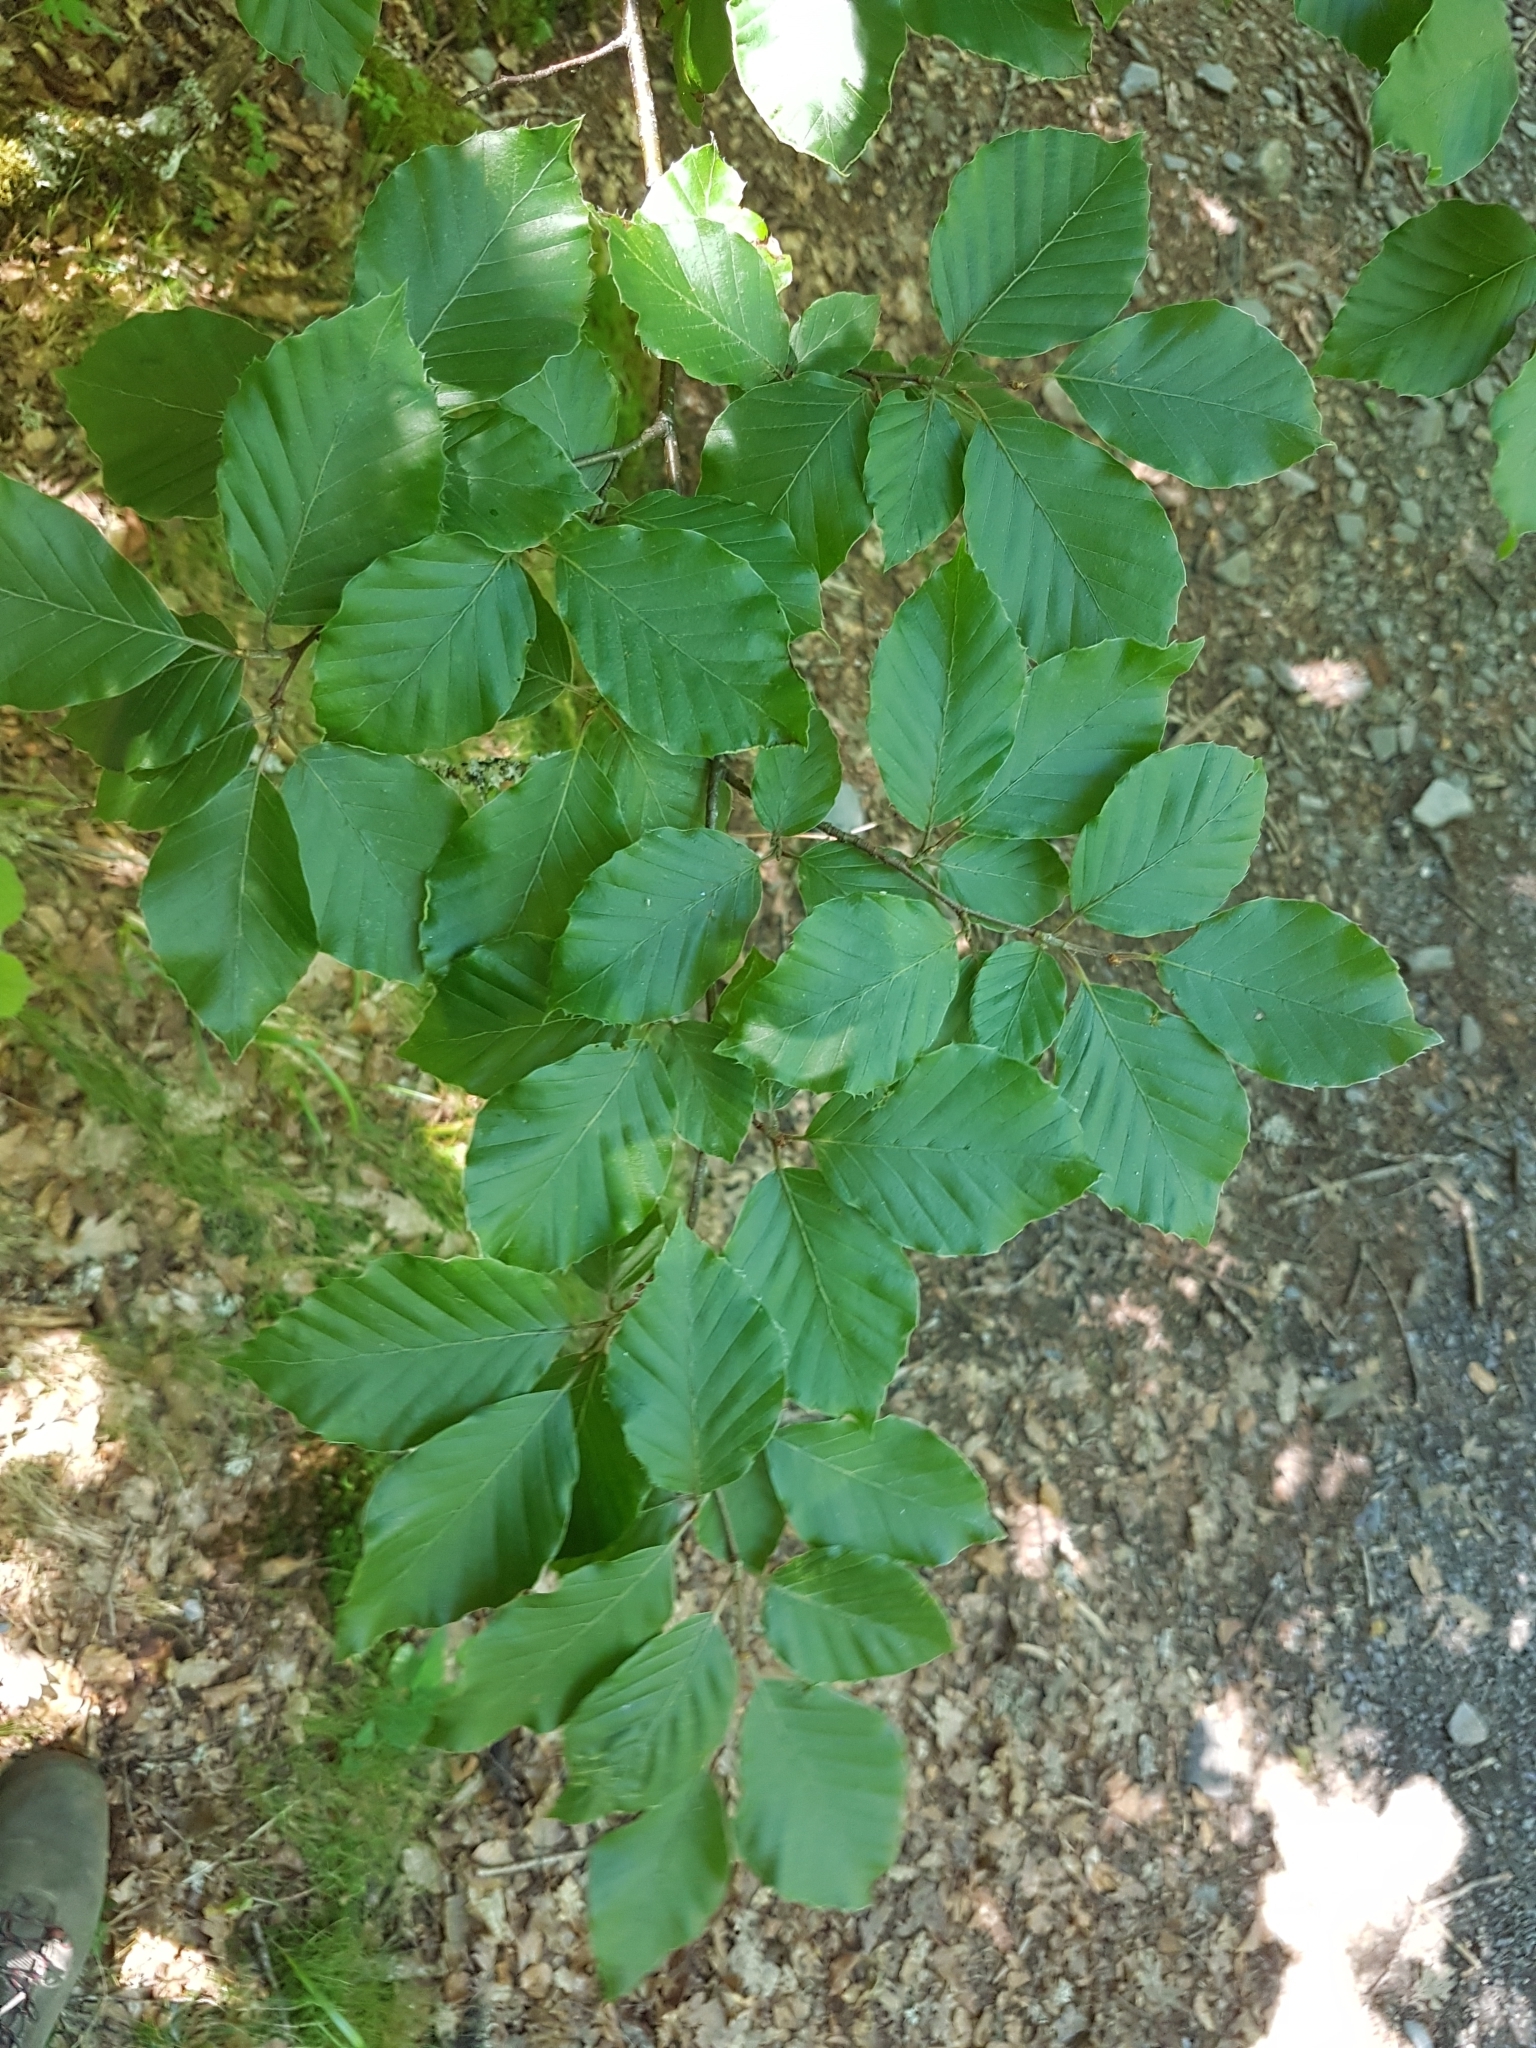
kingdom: Plantae
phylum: Tracheophyta
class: Magnoliopsida
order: Fagales
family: Fagaceae
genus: Fagus
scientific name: Fagus sylvatica
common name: Beech
